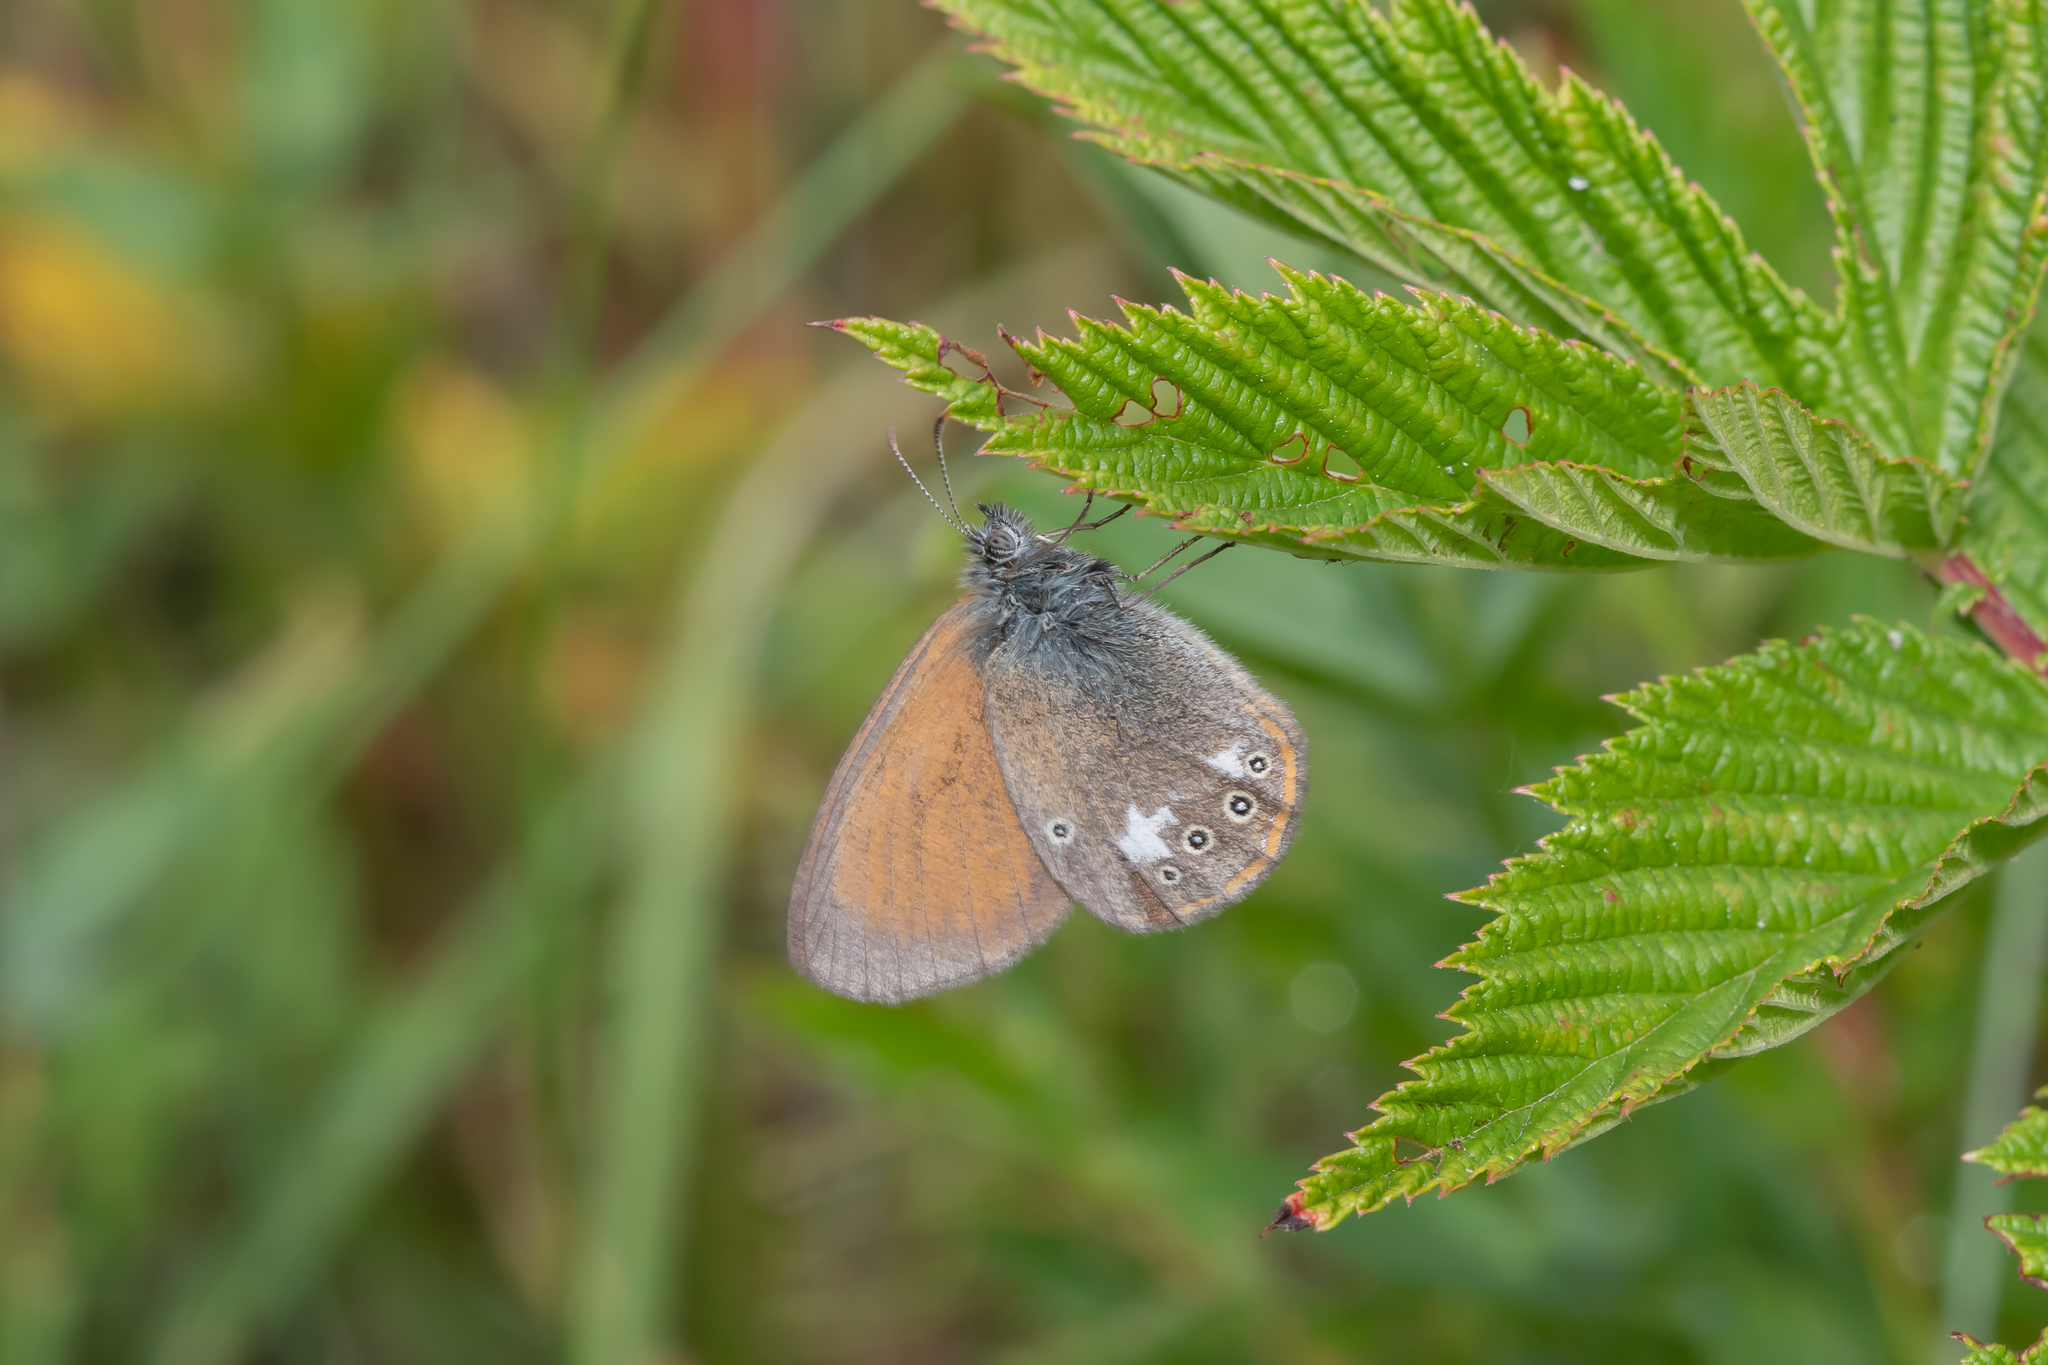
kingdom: Animalia
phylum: Arthropoda
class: Insecta
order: Lepidoptera
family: Nymphalidae
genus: Coenonympha
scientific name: Coenonympha iphis
